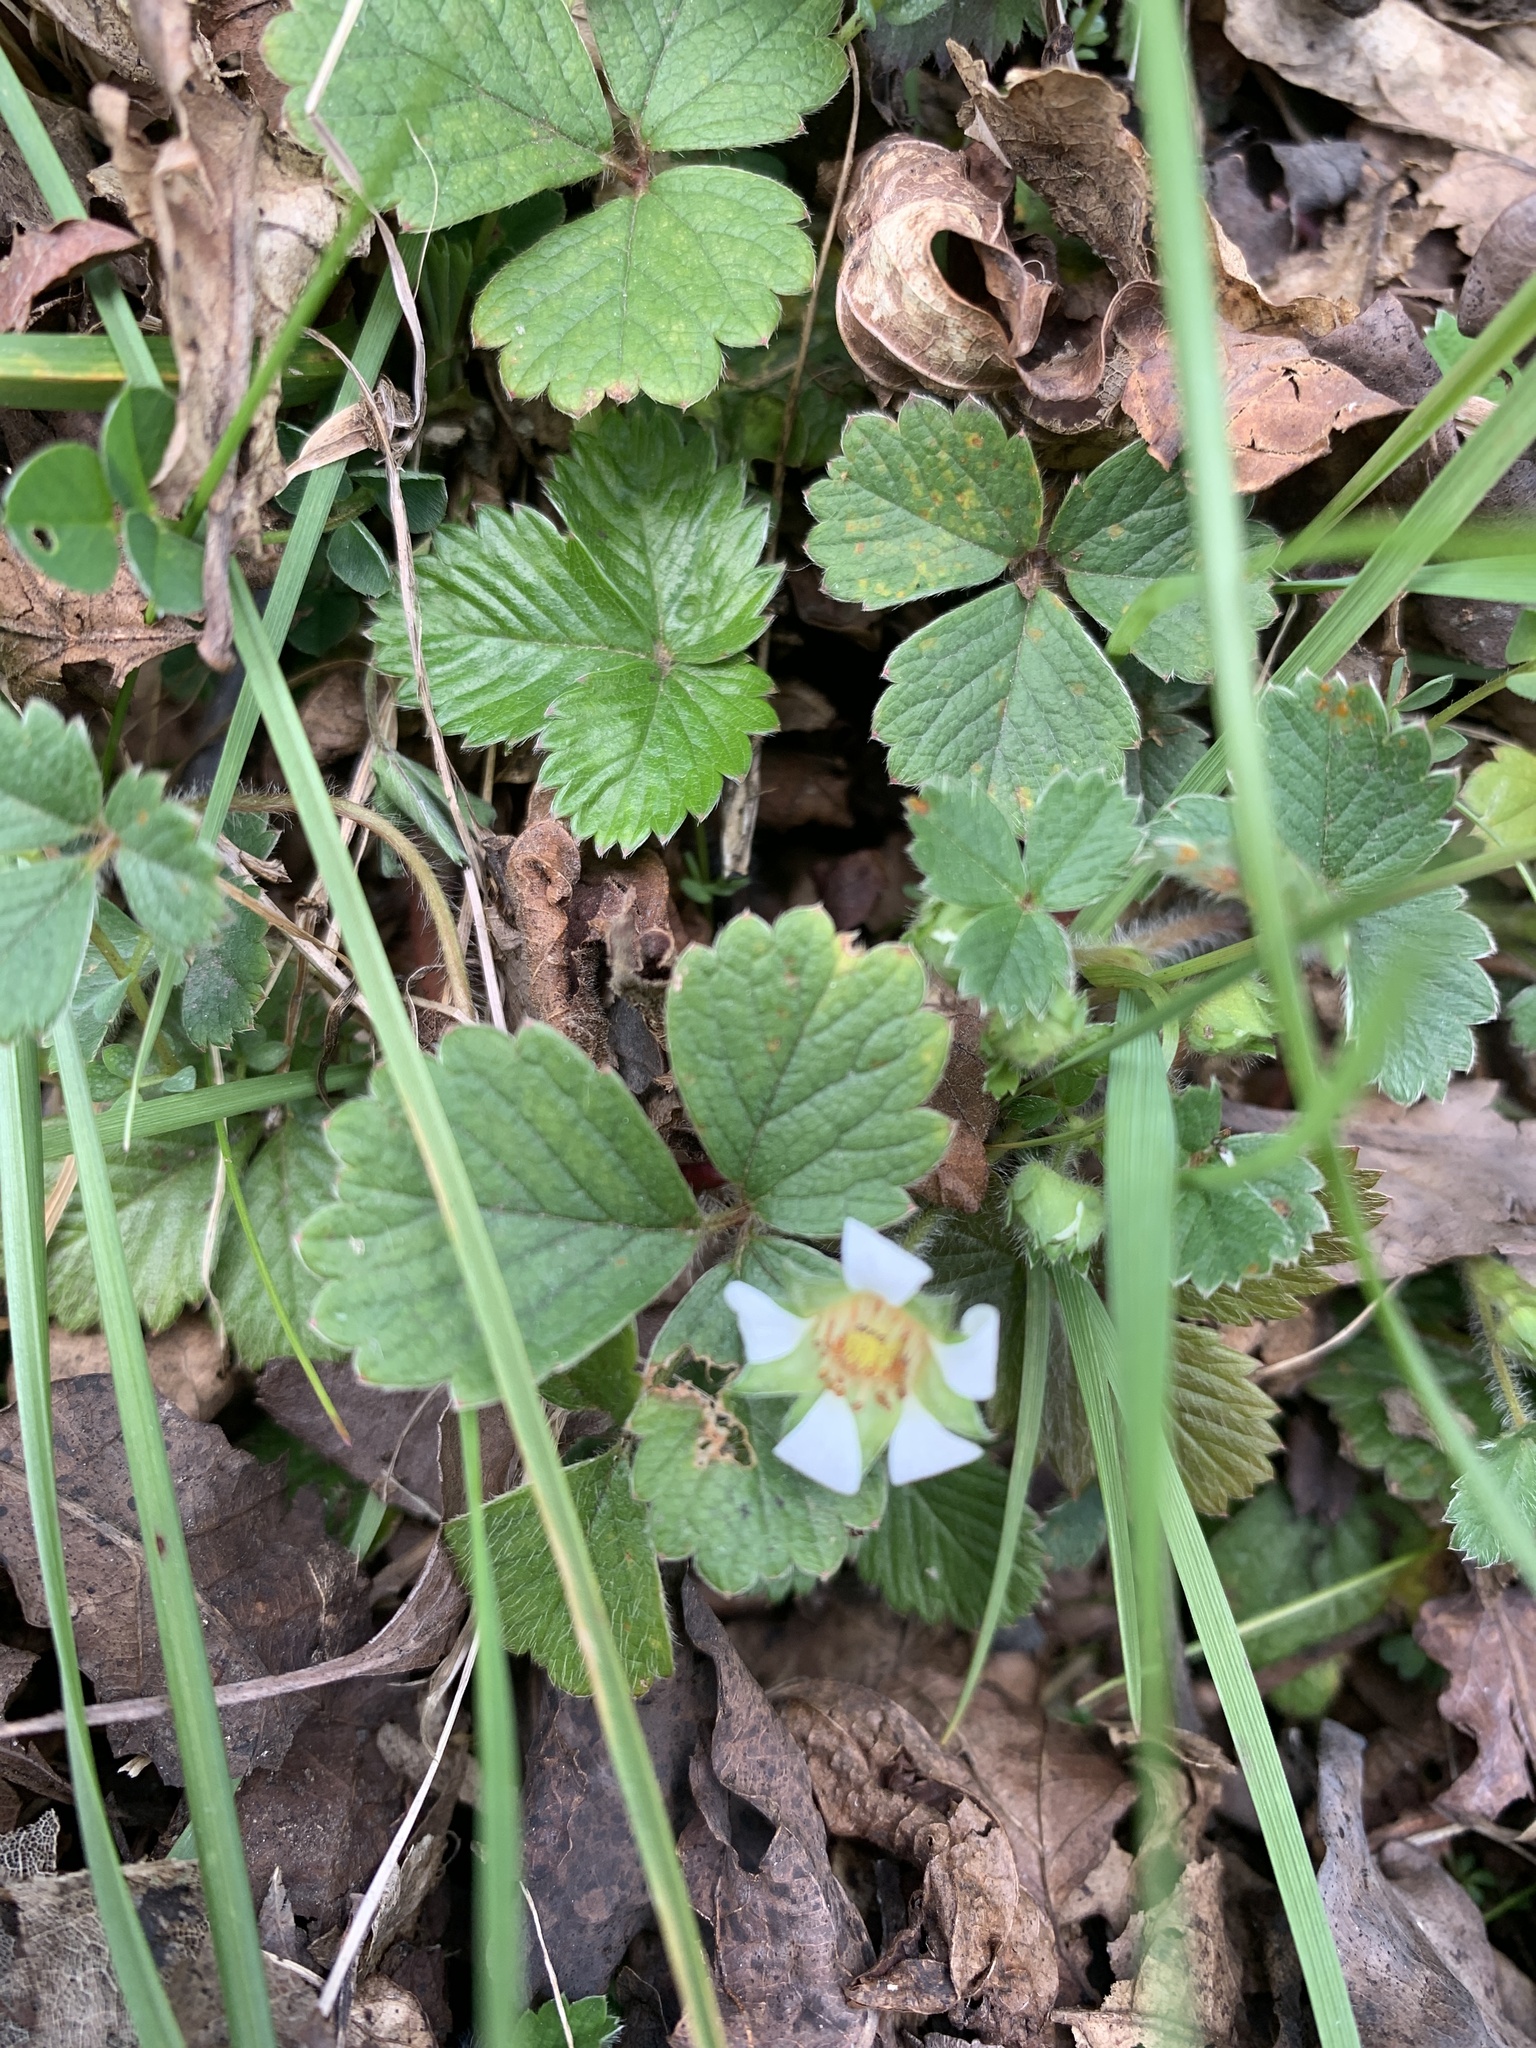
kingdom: Plantae
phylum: Tracheophyta
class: Magnoliopsida
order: Rosales
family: Rosaceae
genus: Potentilla
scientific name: Potentilla sterilis
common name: Barren strawberry
